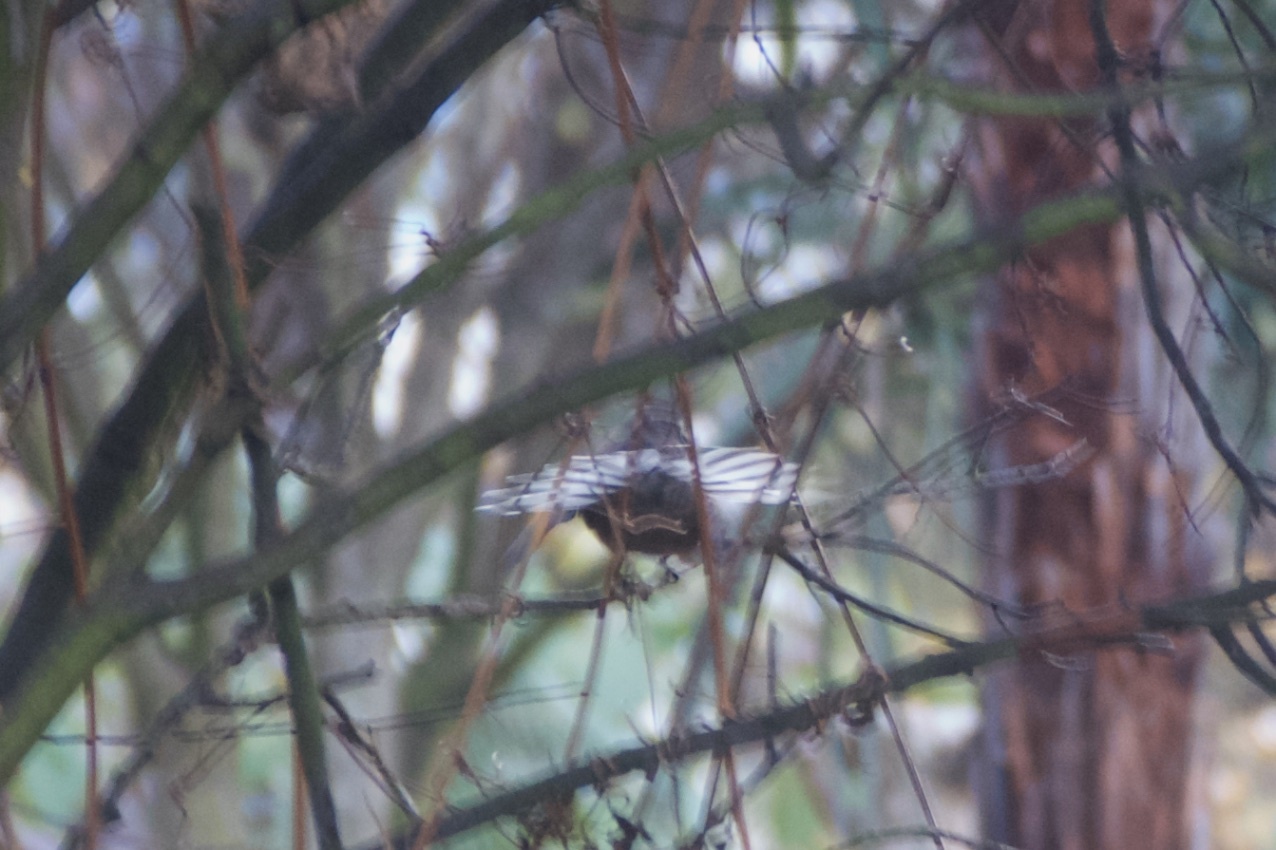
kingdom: Animalia
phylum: Chordata
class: Aves
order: Passeriformes
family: Rhipiduridae
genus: Rhipidura
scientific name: Rhipidura fuliginosa
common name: New zealand fantail
